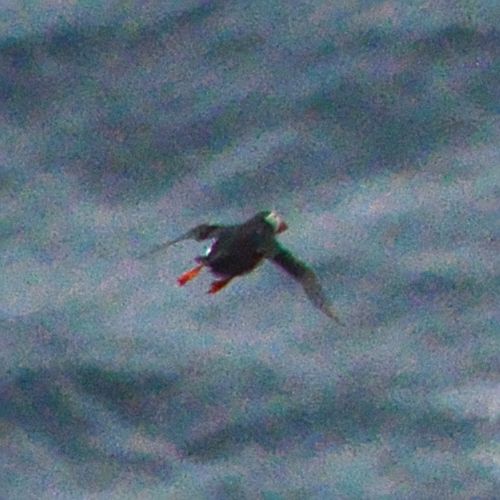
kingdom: Animalia
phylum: Chordata
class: Aves
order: Charadriiformes
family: Alcidae
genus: Fratercula
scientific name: Fratercula arctica
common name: Atlantic puffin
